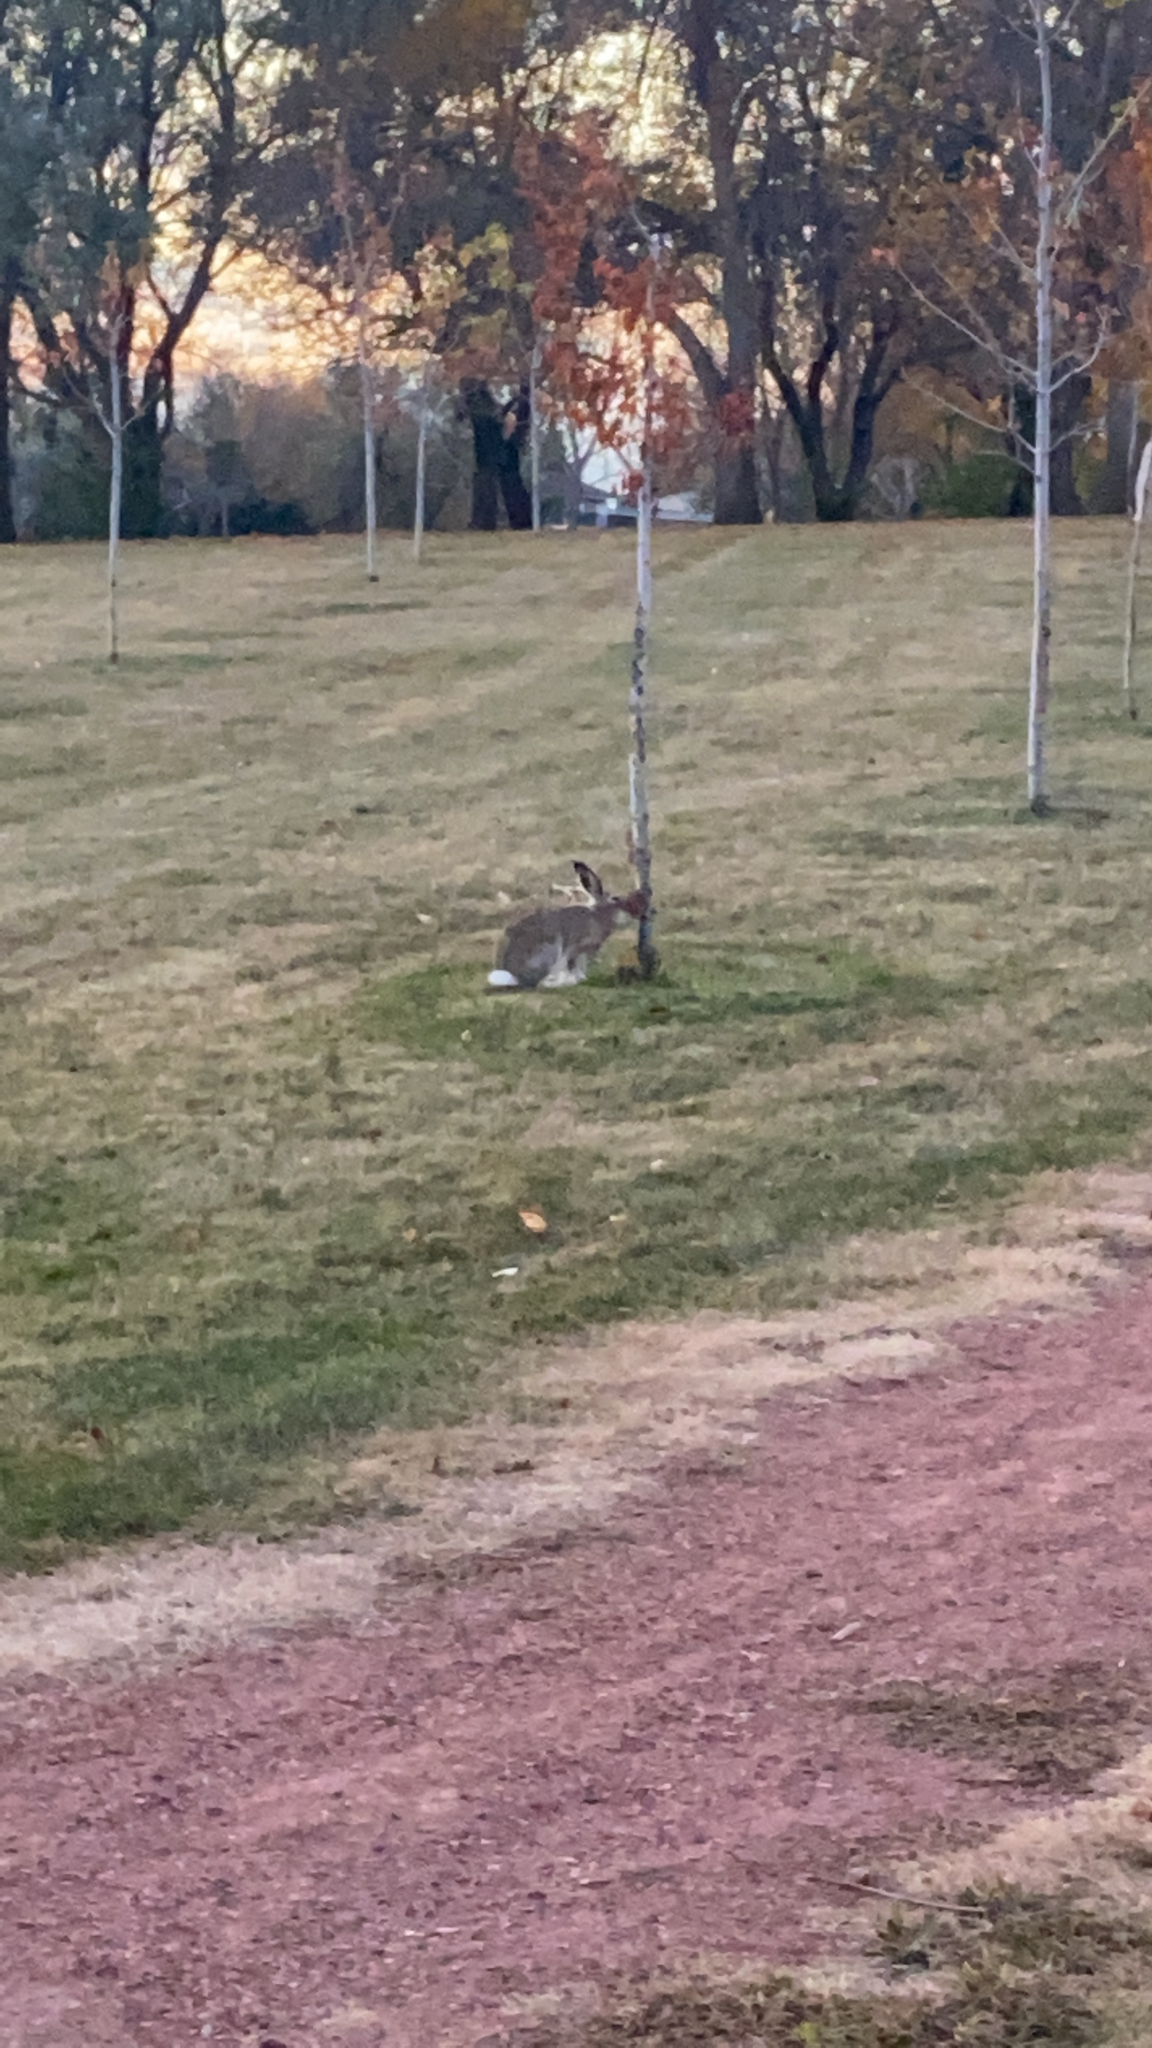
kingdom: Animalia
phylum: Chordata
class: Mammalia
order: Lagomorpha
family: Leporidae
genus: Lepus
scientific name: Lepus townsendii
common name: White-tailed jackrabbit
